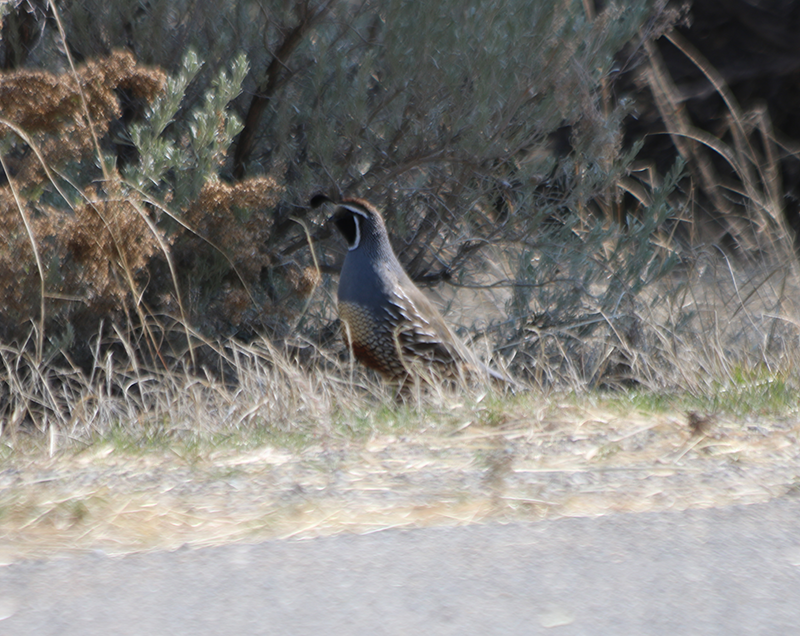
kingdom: Animalia
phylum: Chordata
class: Aves
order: Galliformes
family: Odontophoridae
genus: Callipepla
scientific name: Callipepla californica
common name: California quail
